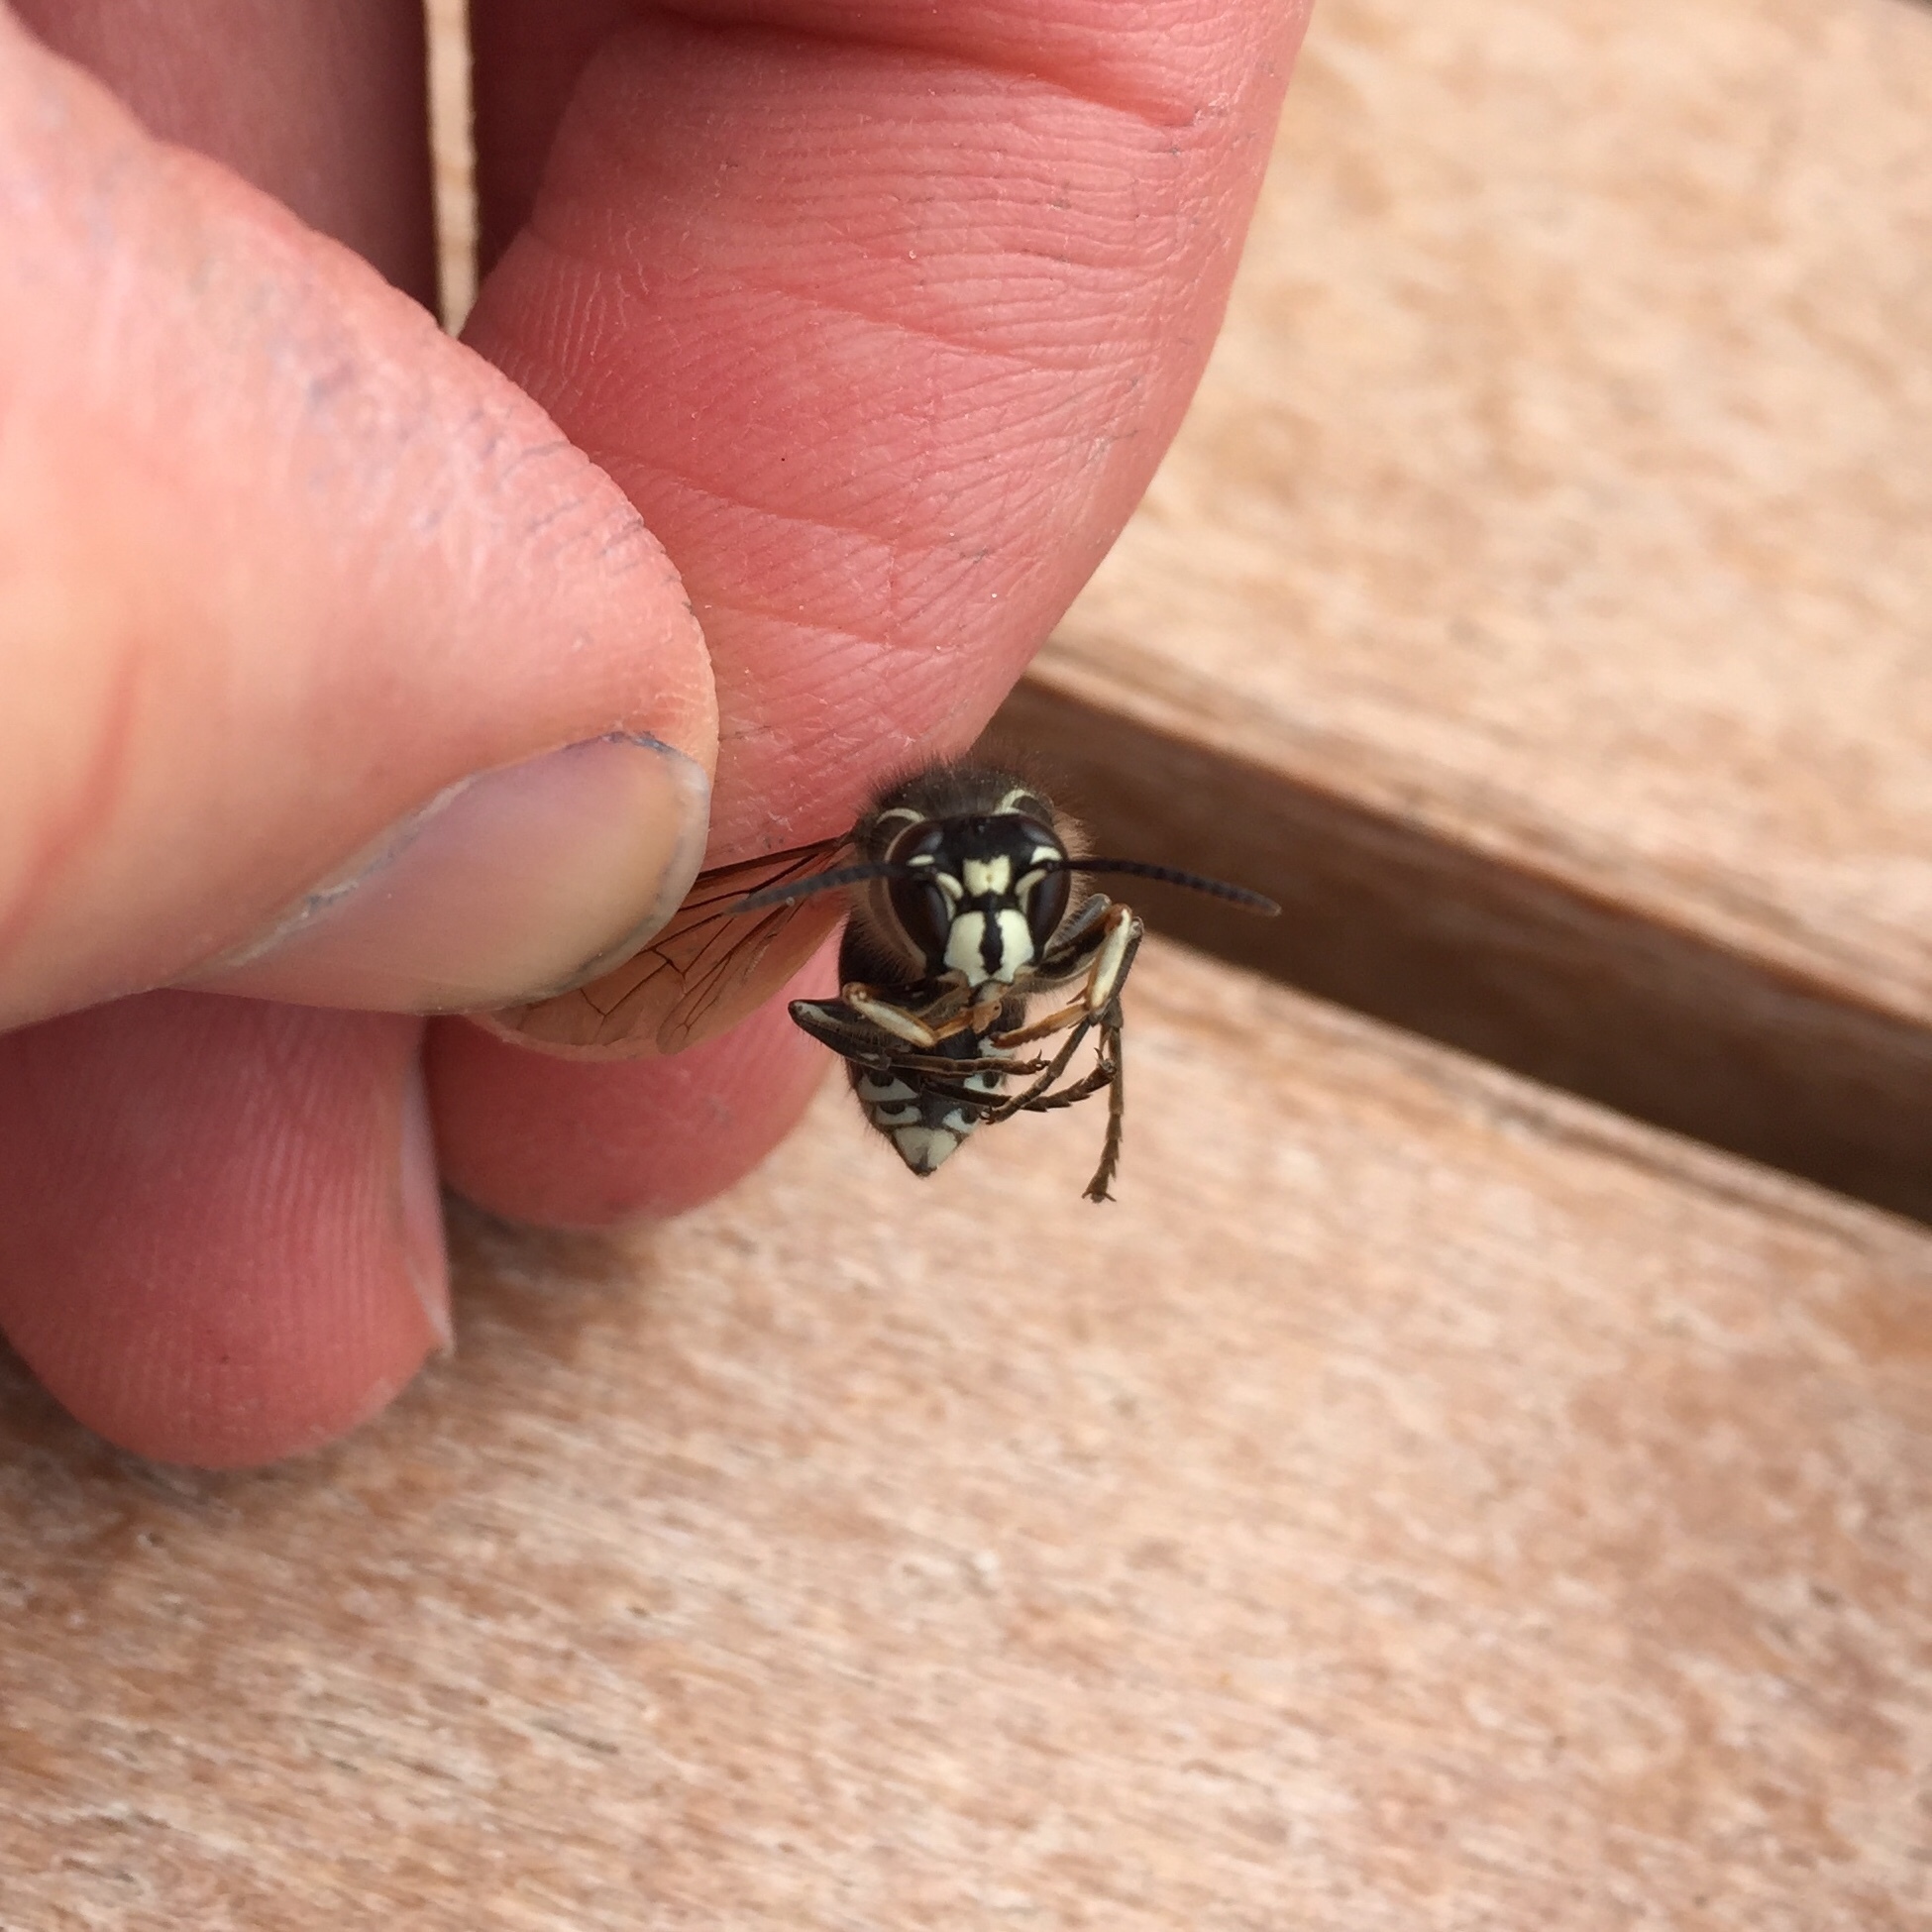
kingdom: Animalia
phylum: Arthropoda
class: Insecta
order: Hymenoptera
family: Vespidae
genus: Dolichovespula
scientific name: Dolichovespula maculata
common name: Bald-faced hornet
